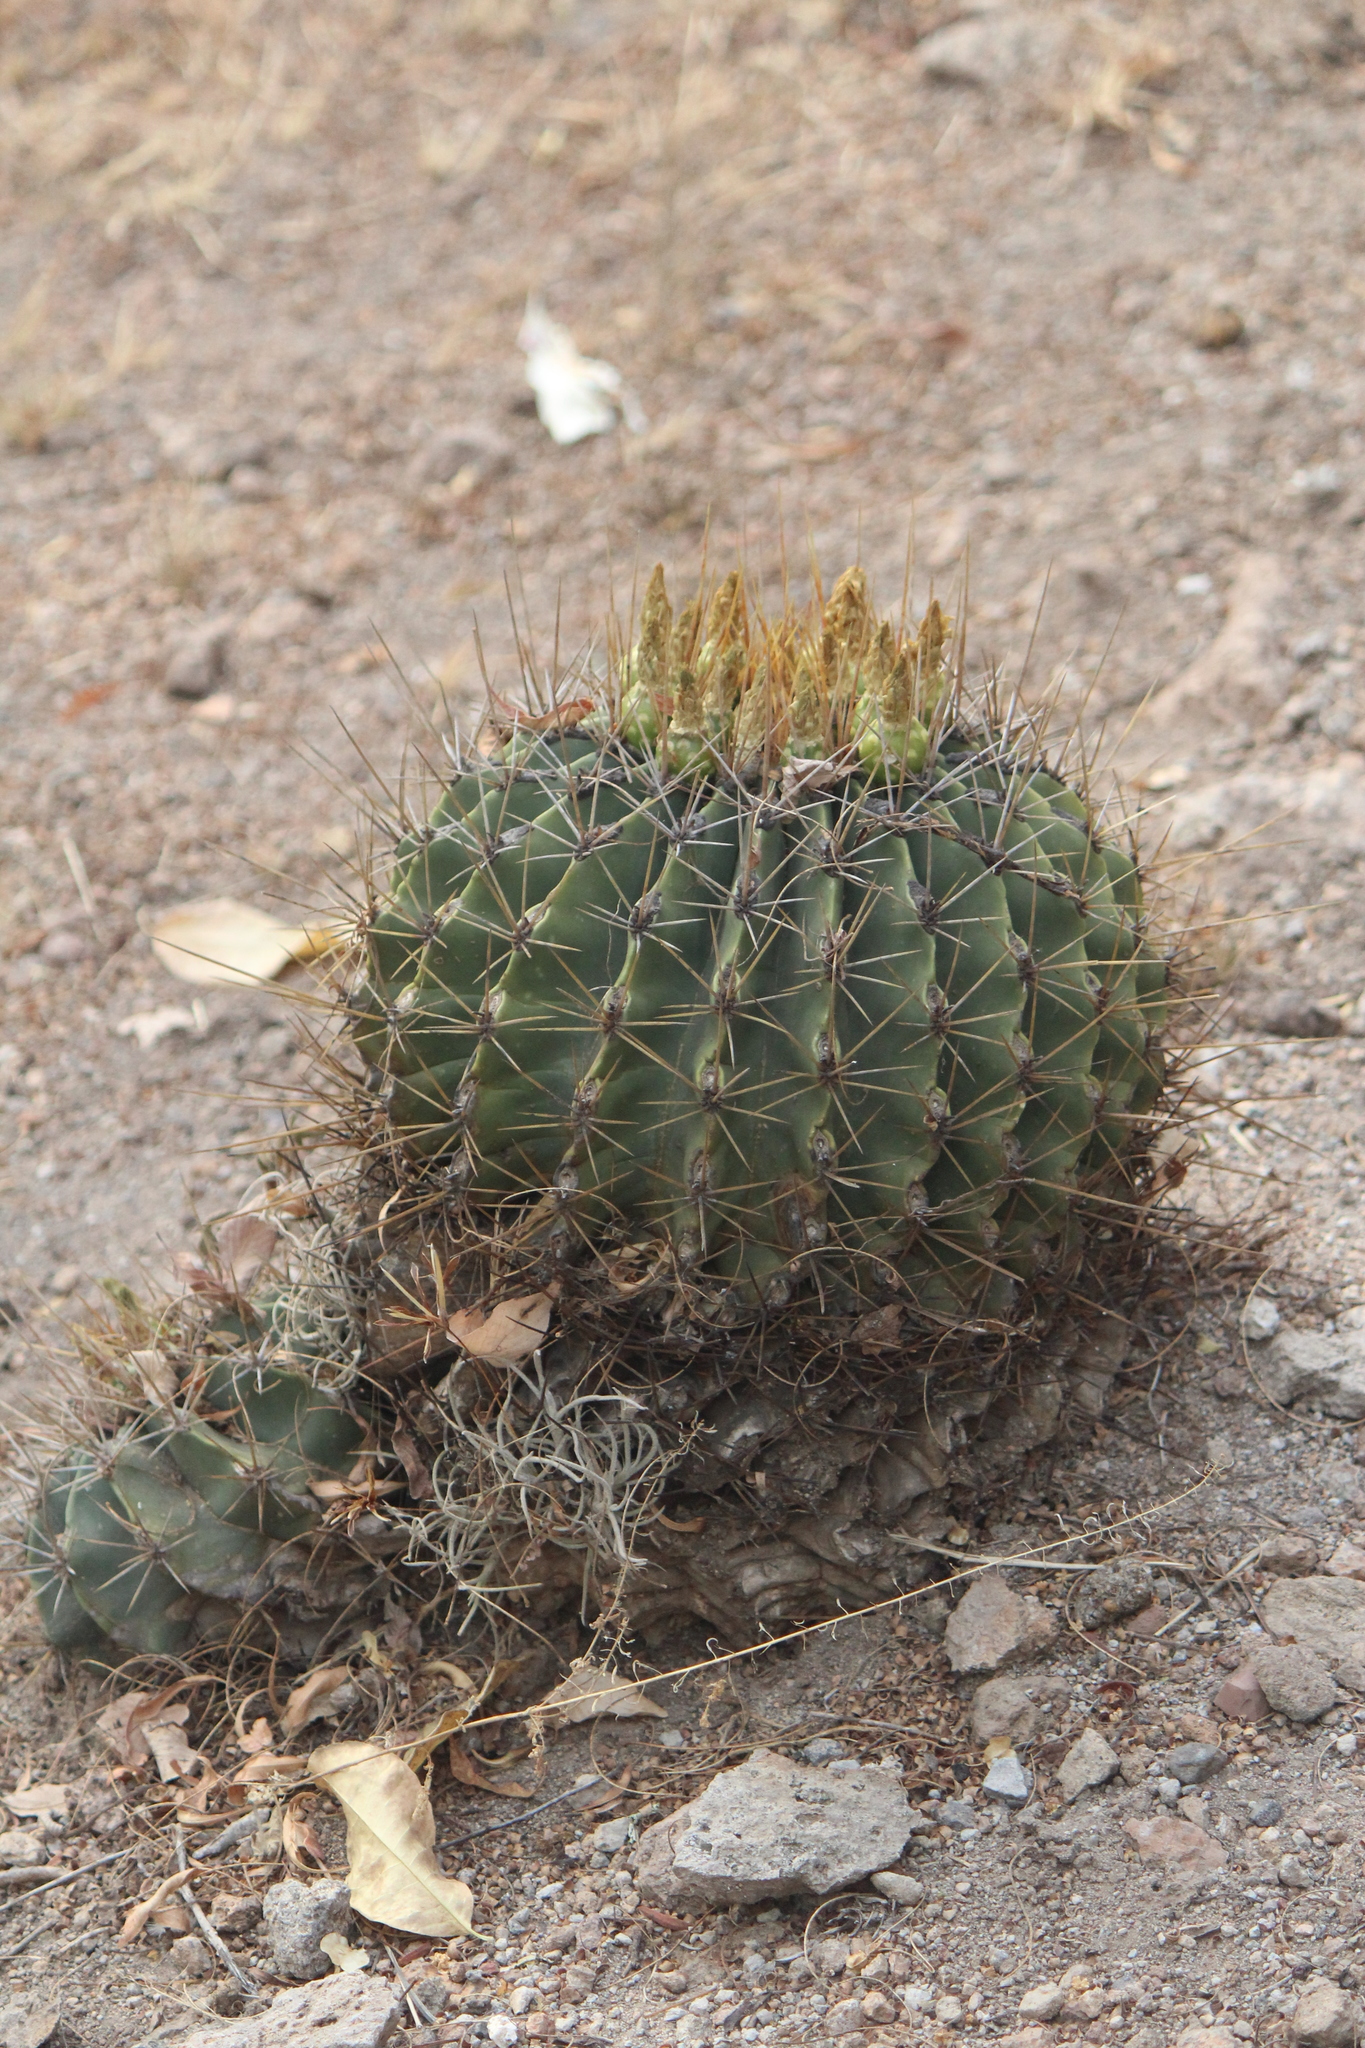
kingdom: Plantae
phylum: Tracheophyta
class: Magnoliopsida
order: Caryophyllales
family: Cactaceae
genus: Parrycactus
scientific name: Parrycactus echidne
